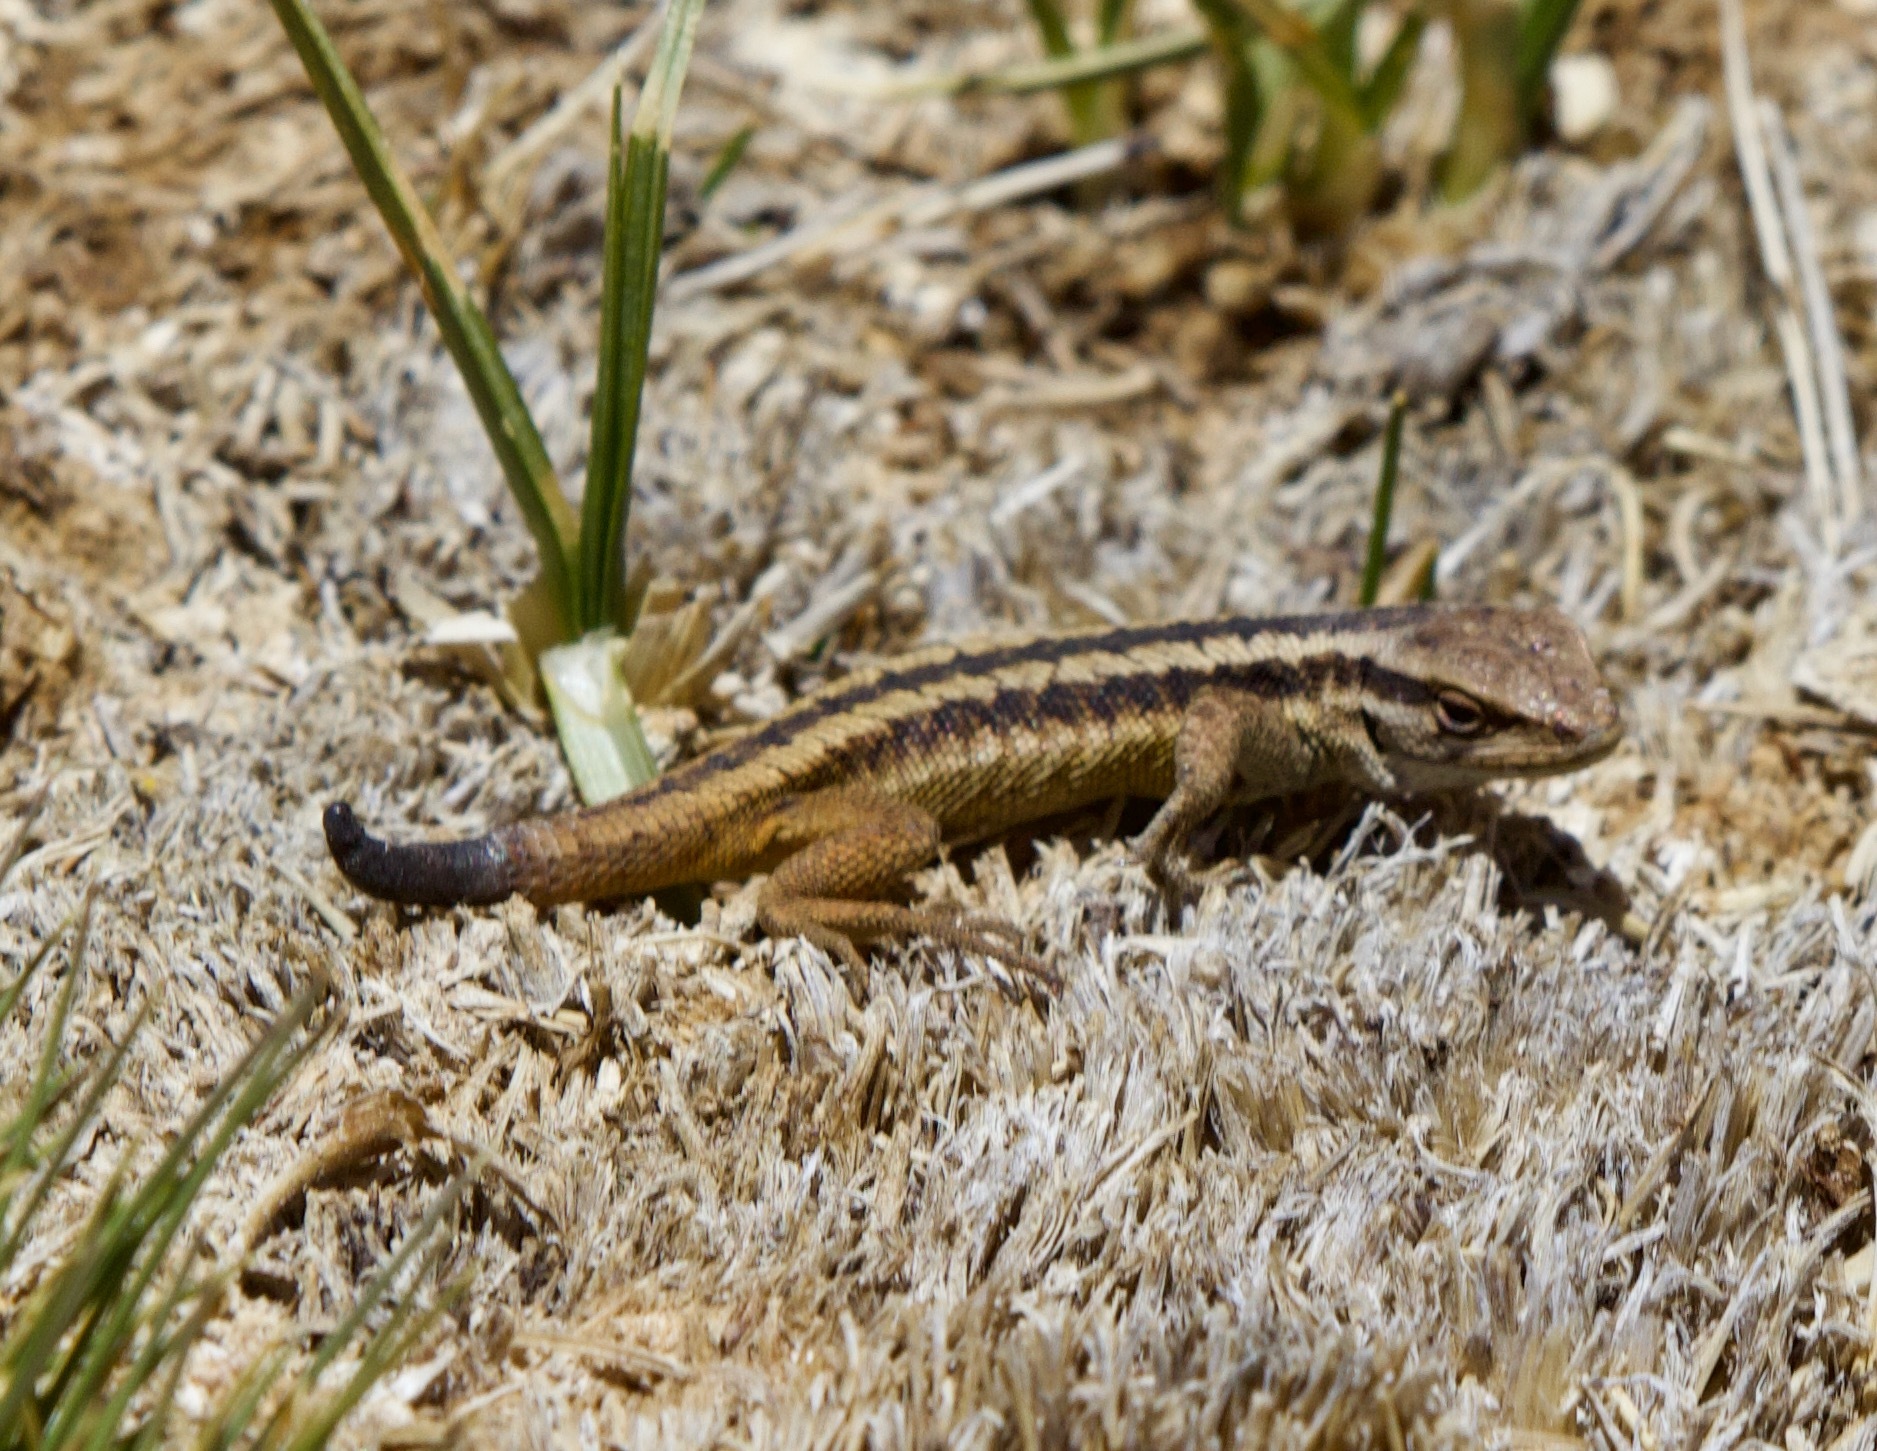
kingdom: Animalia
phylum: Chordata
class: Squamata
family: Liolaemidae
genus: Liolaemus
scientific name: Liolaemus chiliensis
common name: Chilean tree iguana
